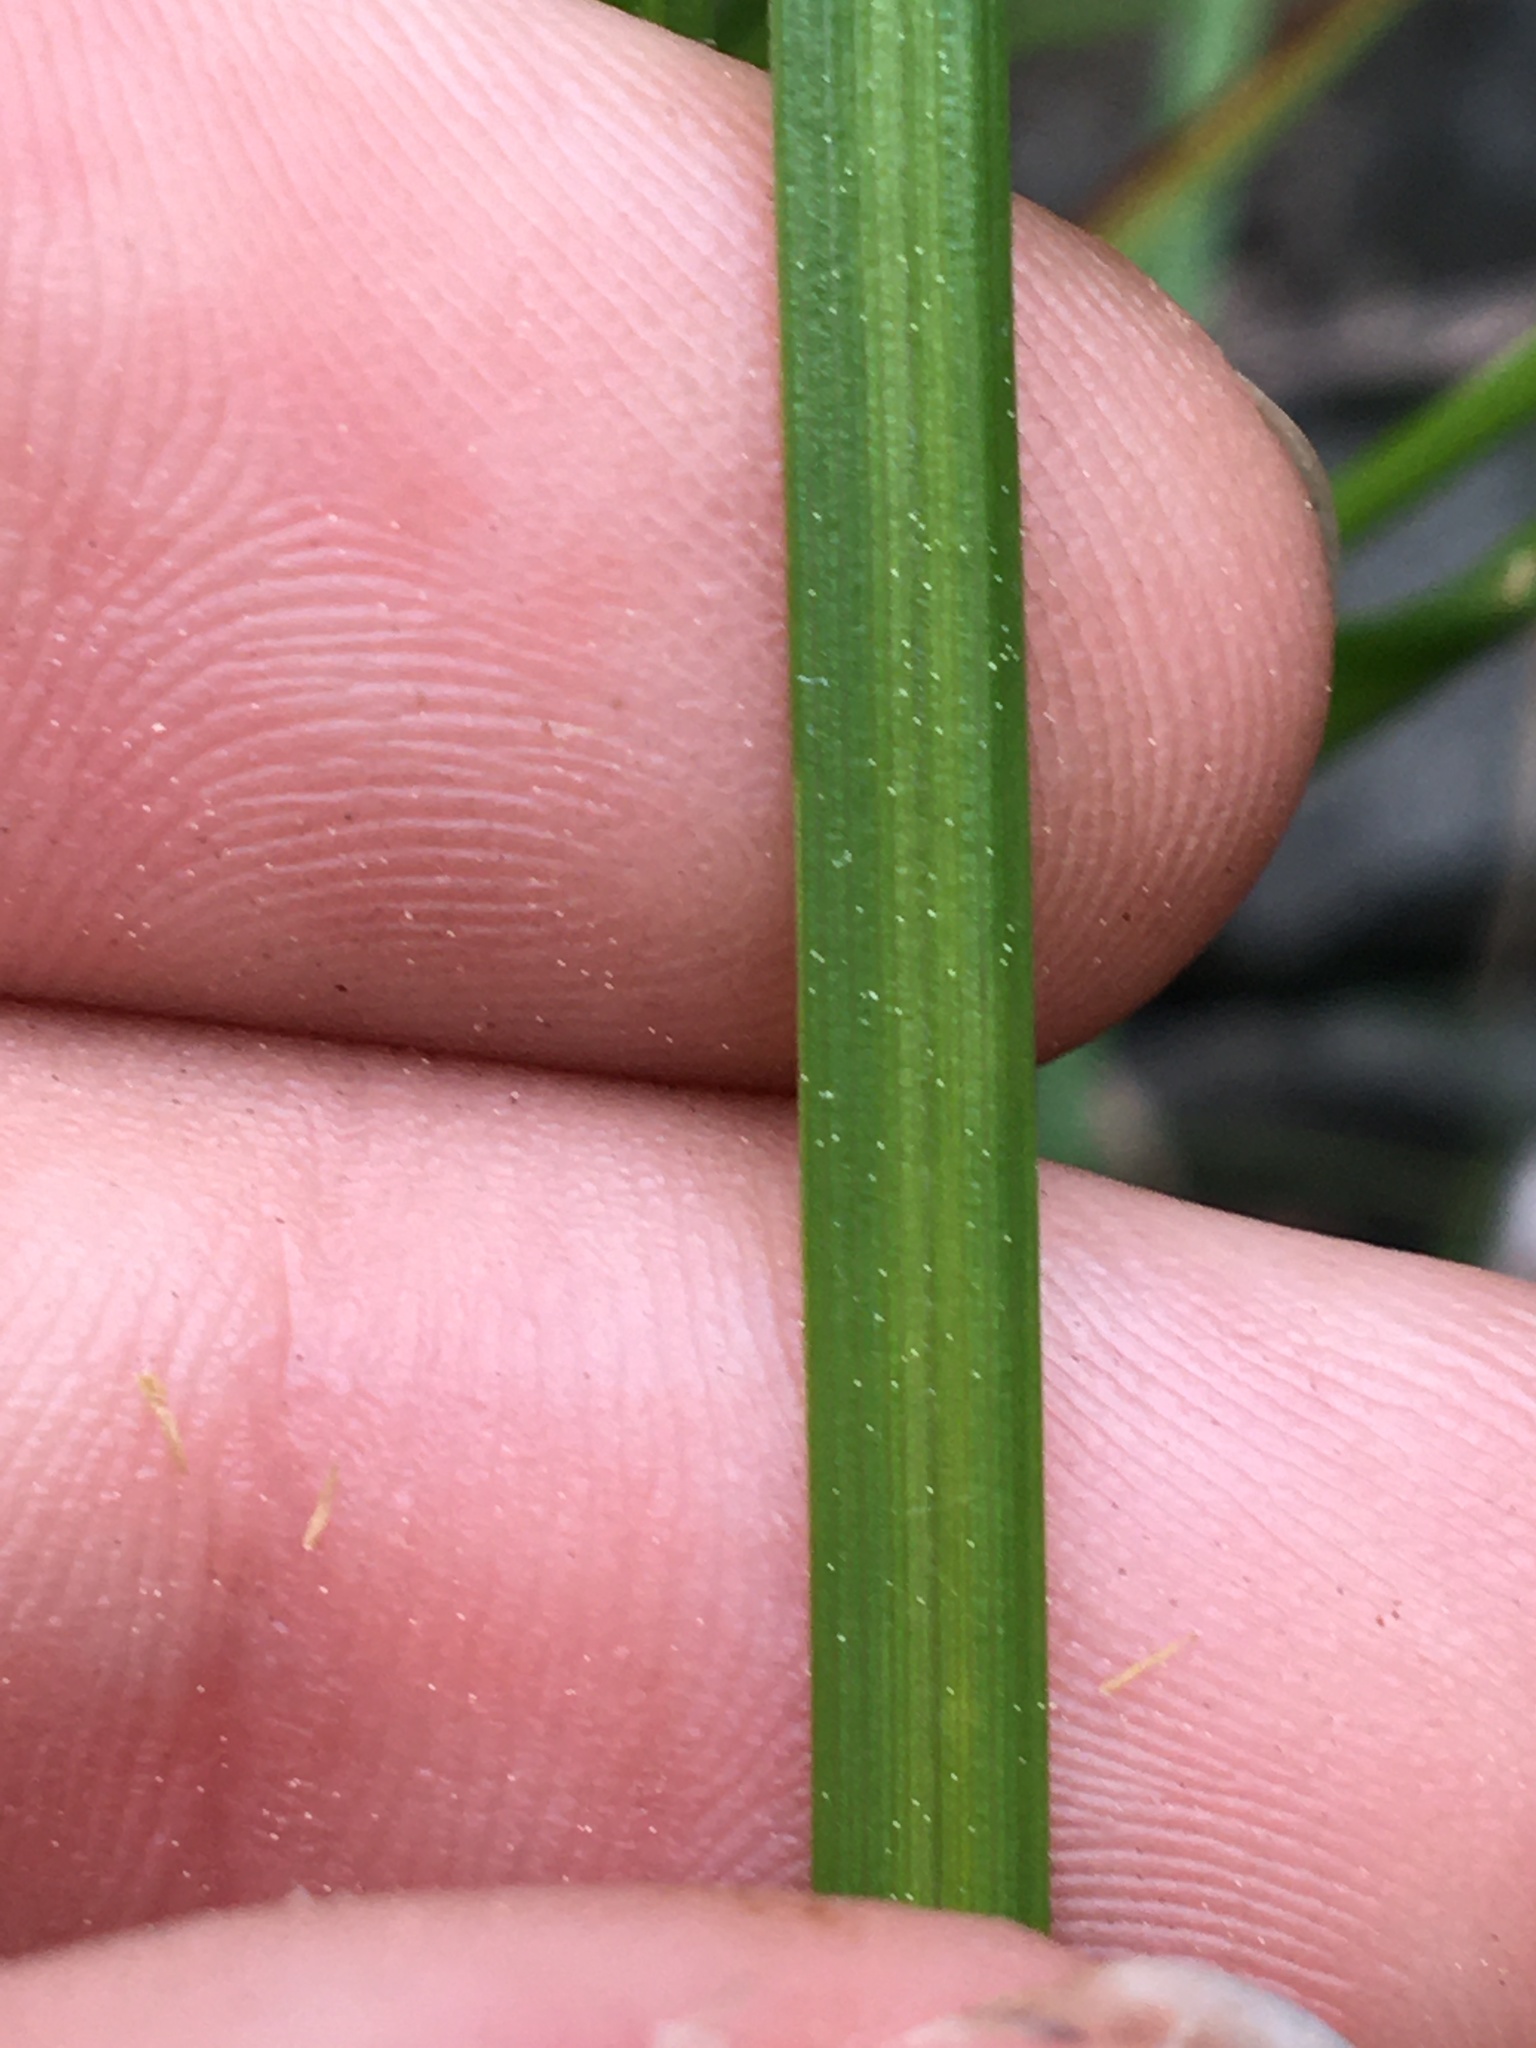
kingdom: Plantae
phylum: Tracheophyta
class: Liliopsida
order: Poales
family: Cyperaceae
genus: Carex
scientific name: Carex scoparia
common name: Broom sedge
